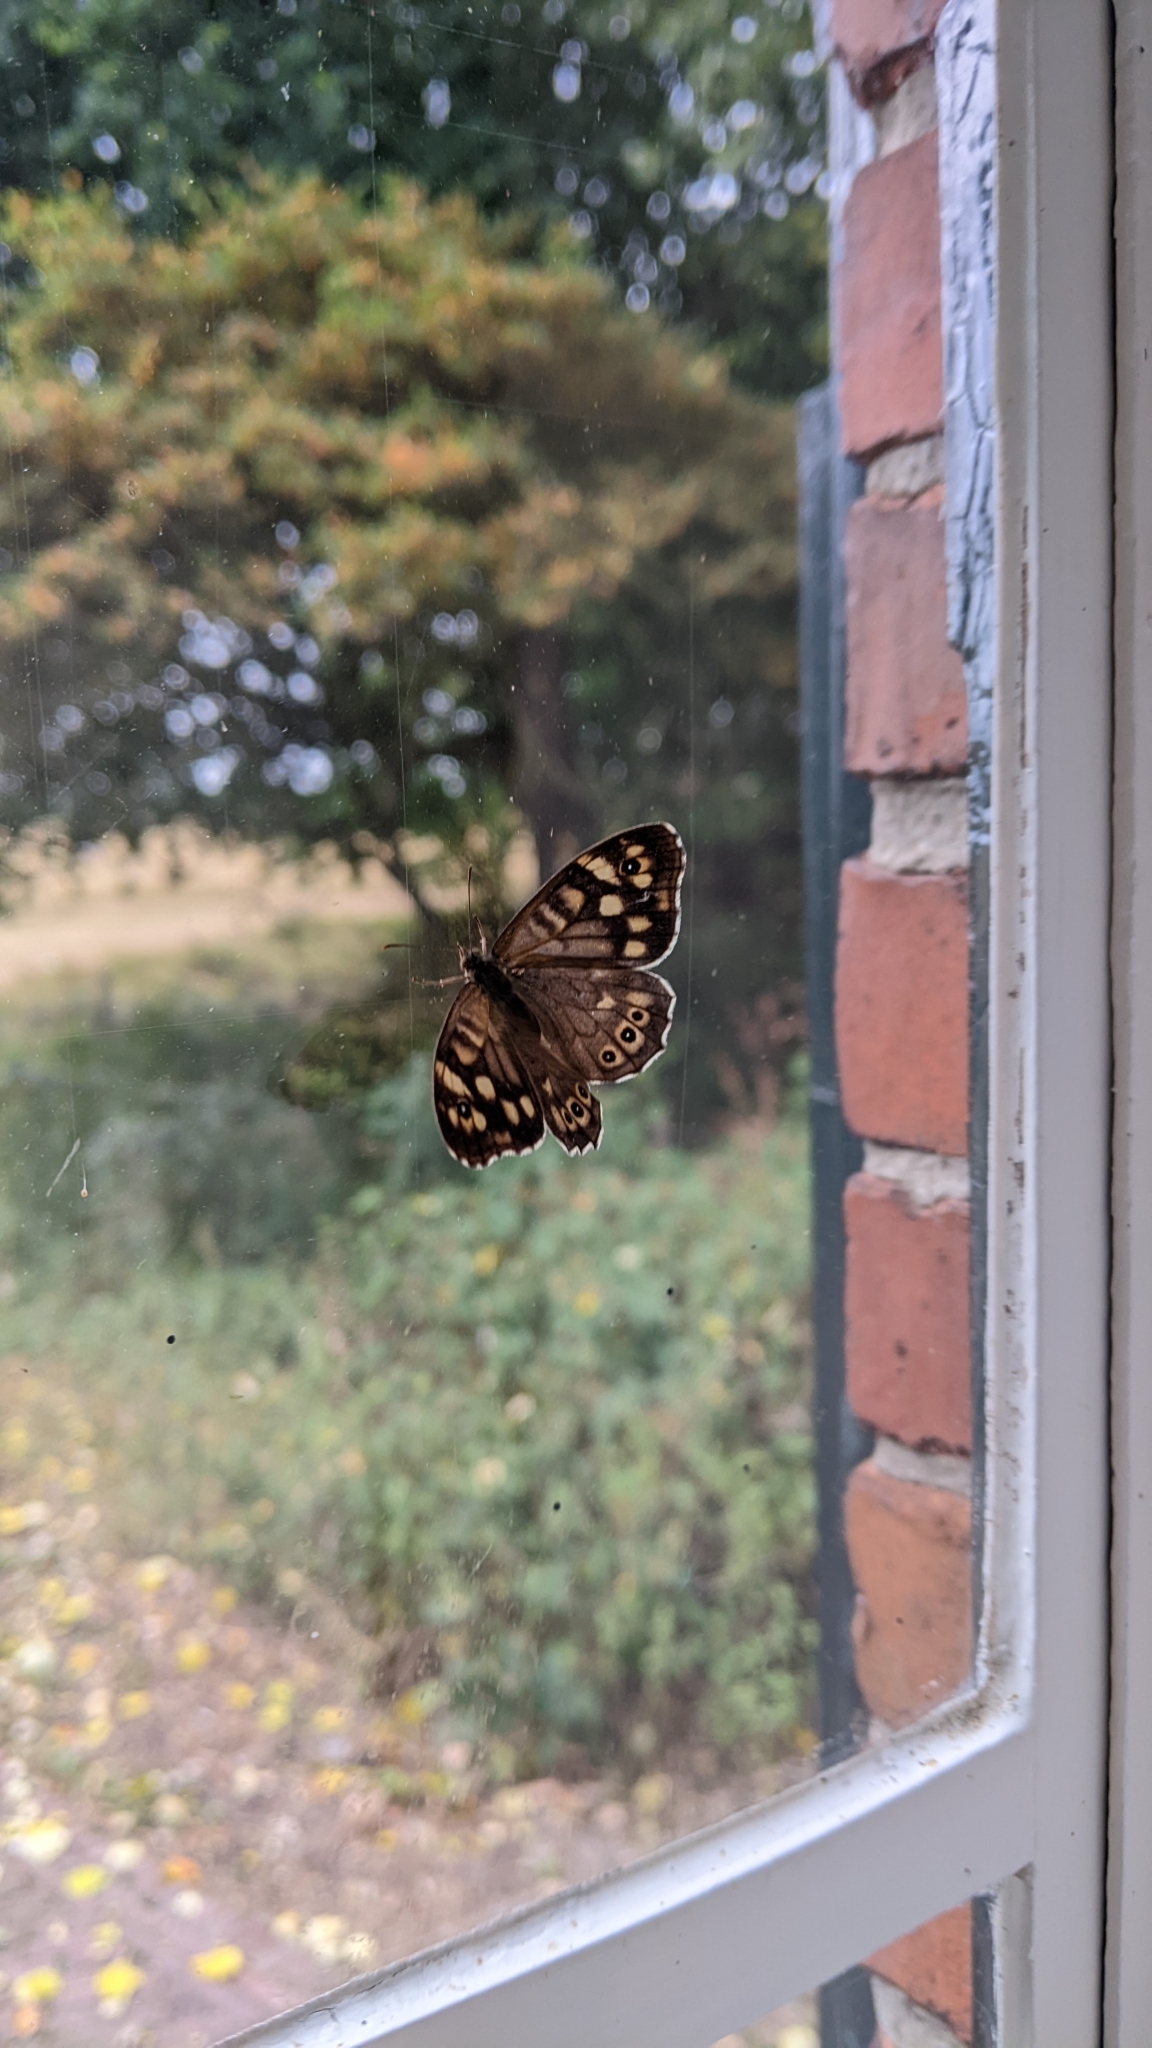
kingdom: Animalia
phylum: Arthropoda
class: Insecta
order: Lepidoptera
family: Nymphalidae
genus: Pararge
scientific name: Pararge aegeria
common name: Speckled wood
